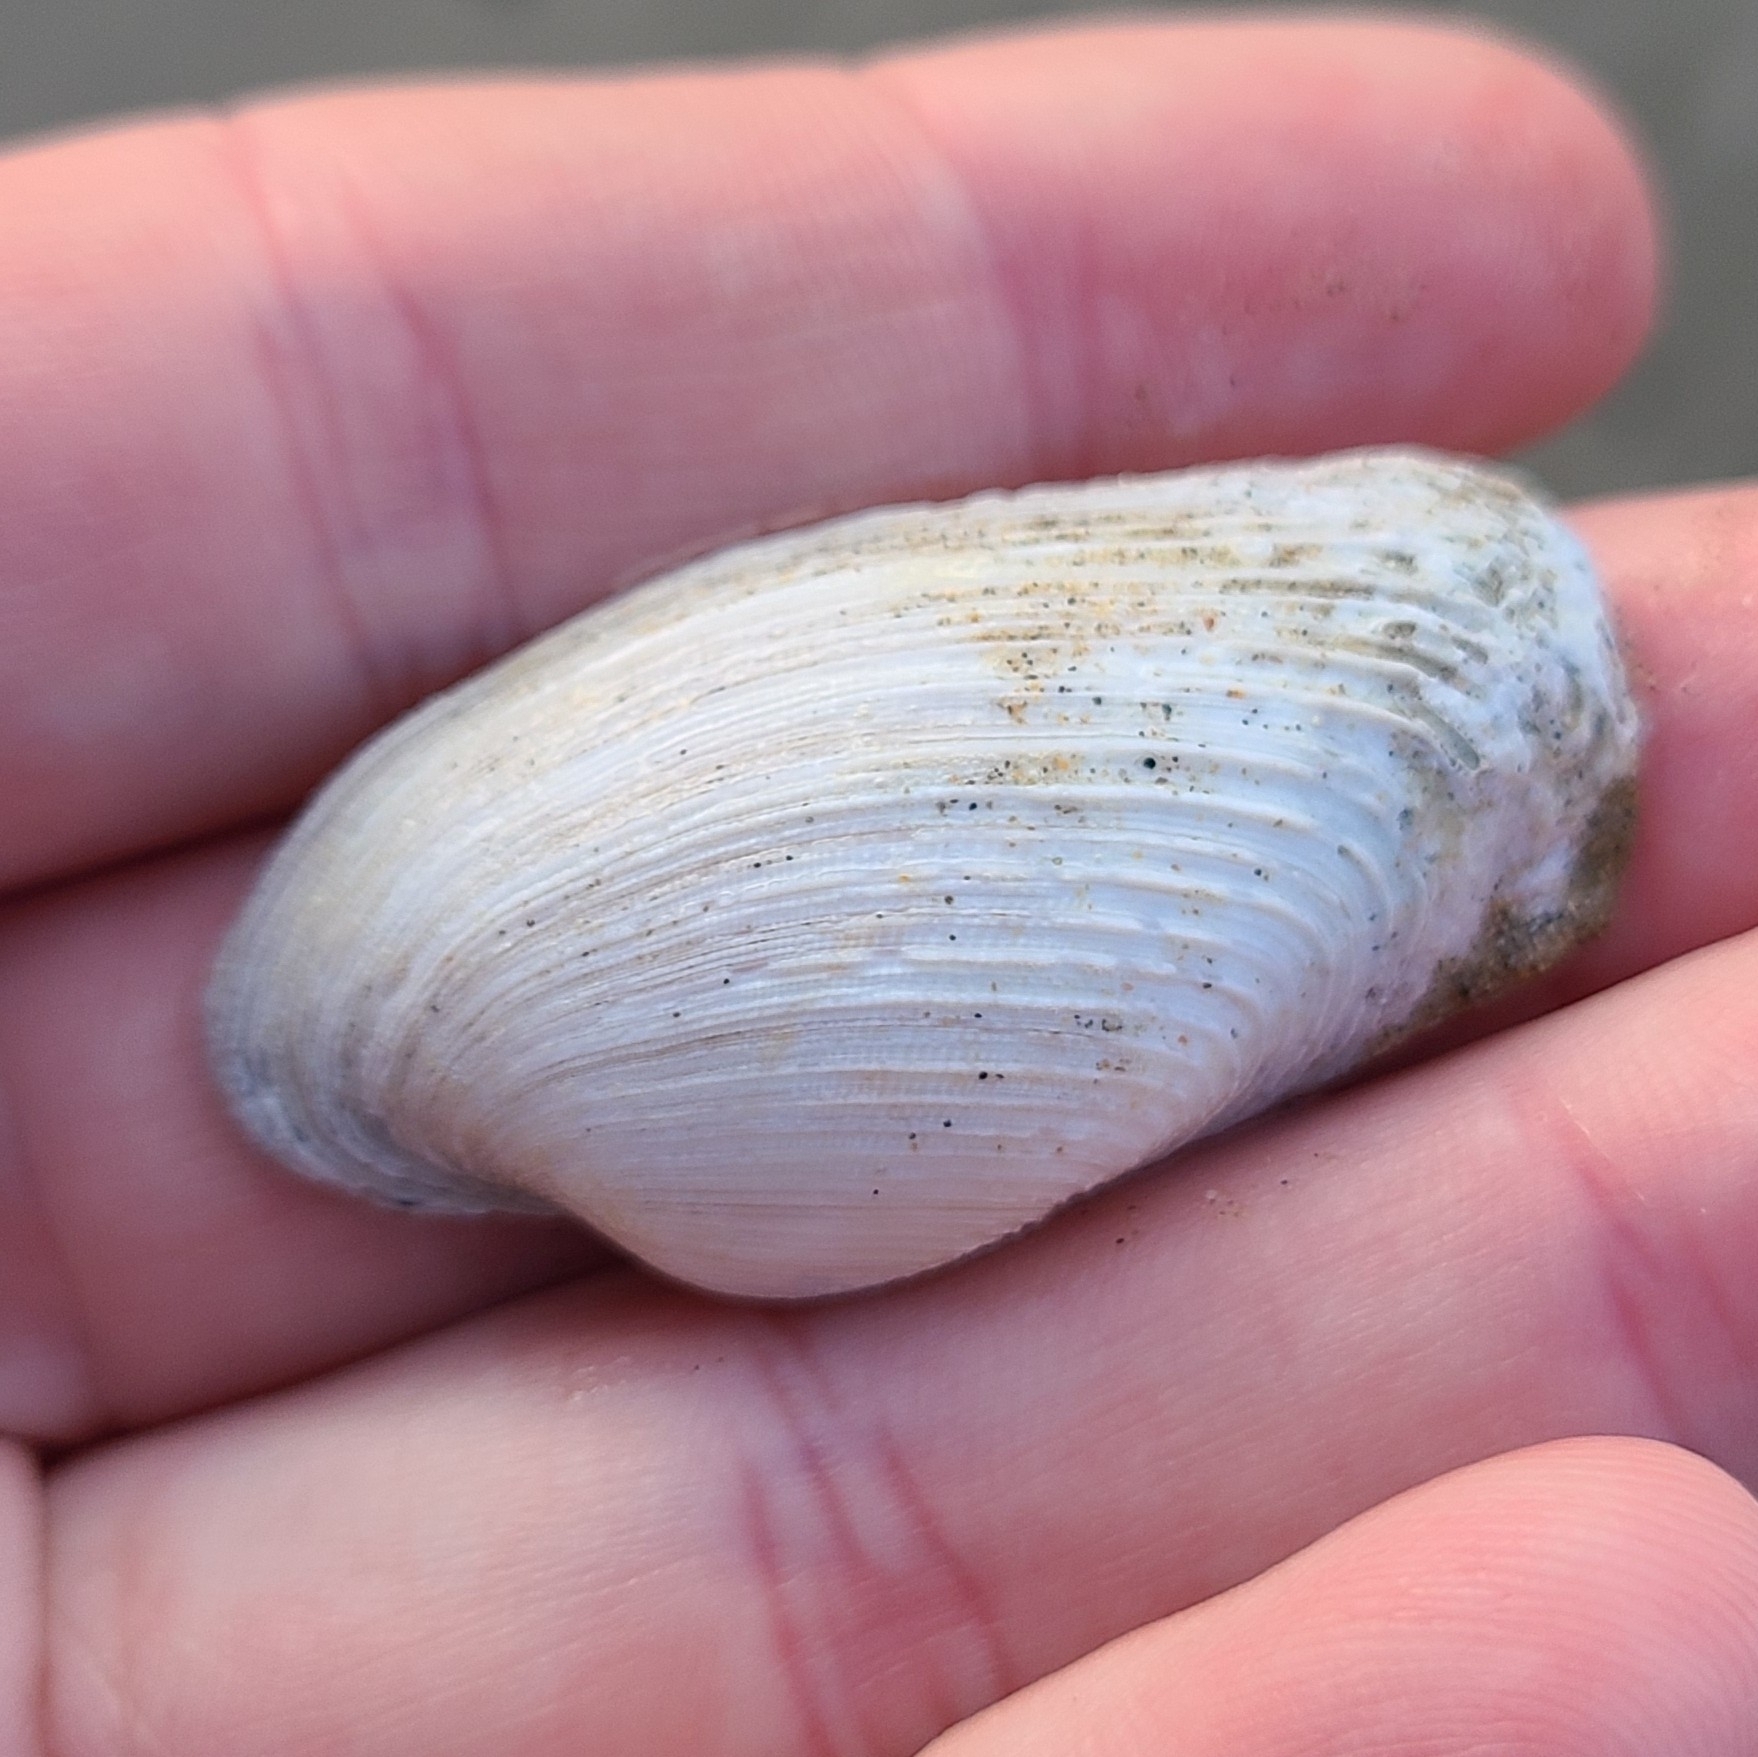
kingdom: Animalia
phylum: Mollusca
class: Bivalvia
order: Venerida
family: Veneridae
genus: Irus
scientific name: Irus elegans
